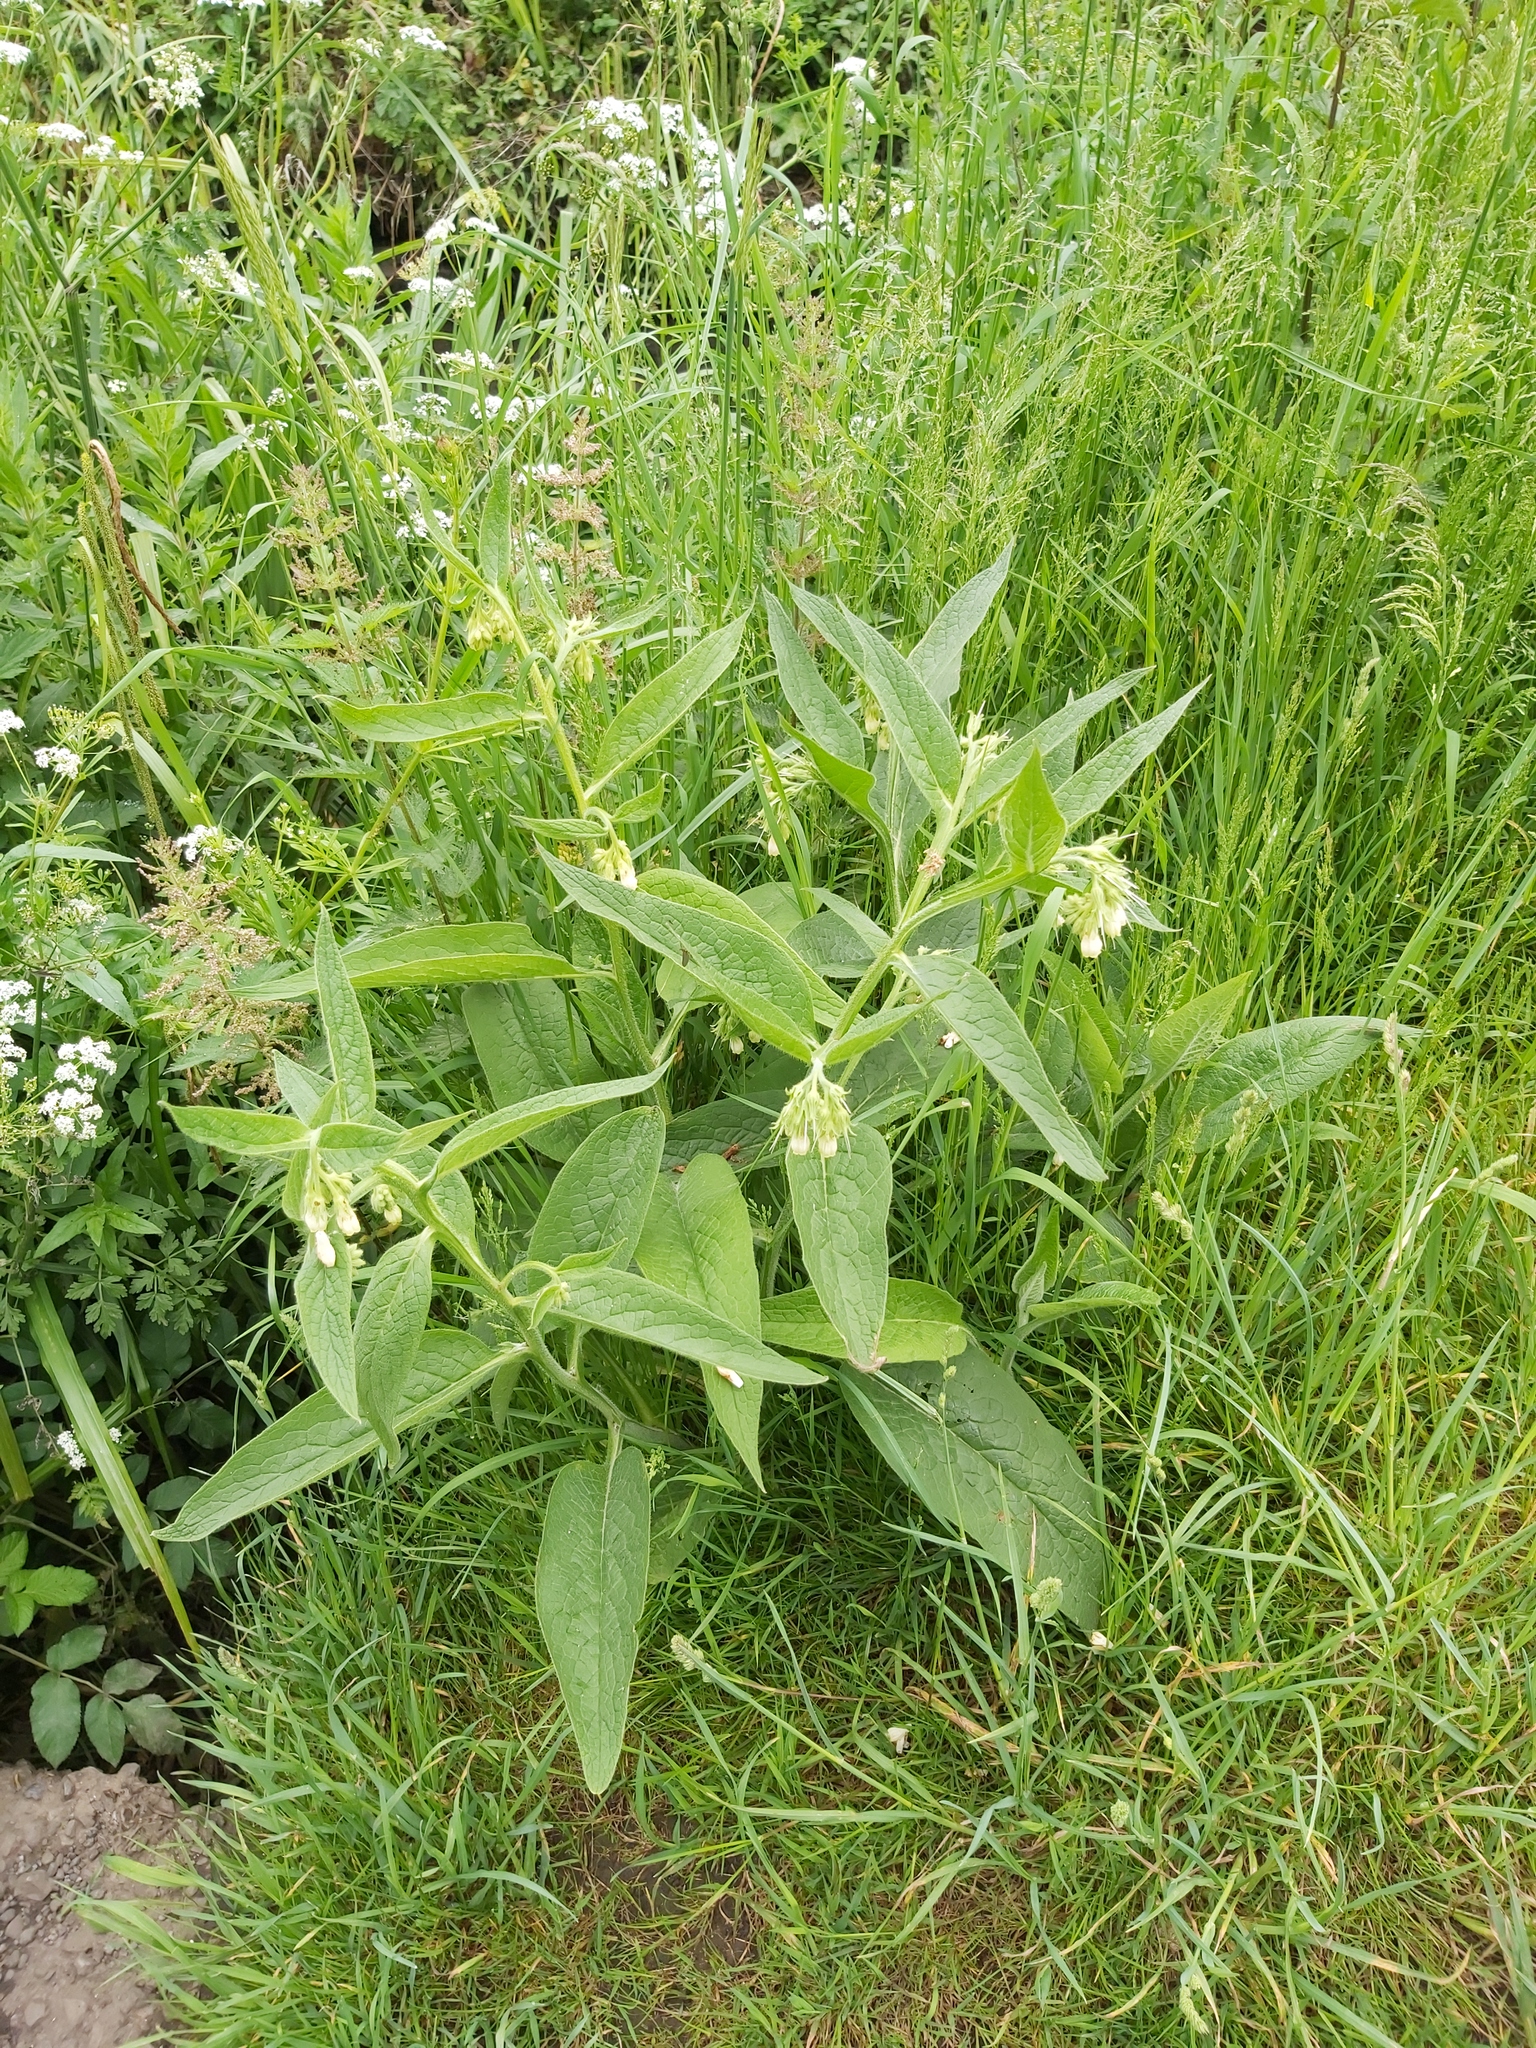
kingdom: Plantae
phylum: Tracheophyta
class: Magnoliopsida
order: Boraginales
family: Boraginaceae
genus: Symphytum
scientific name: Symphytum officinale
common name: Common comfrey
